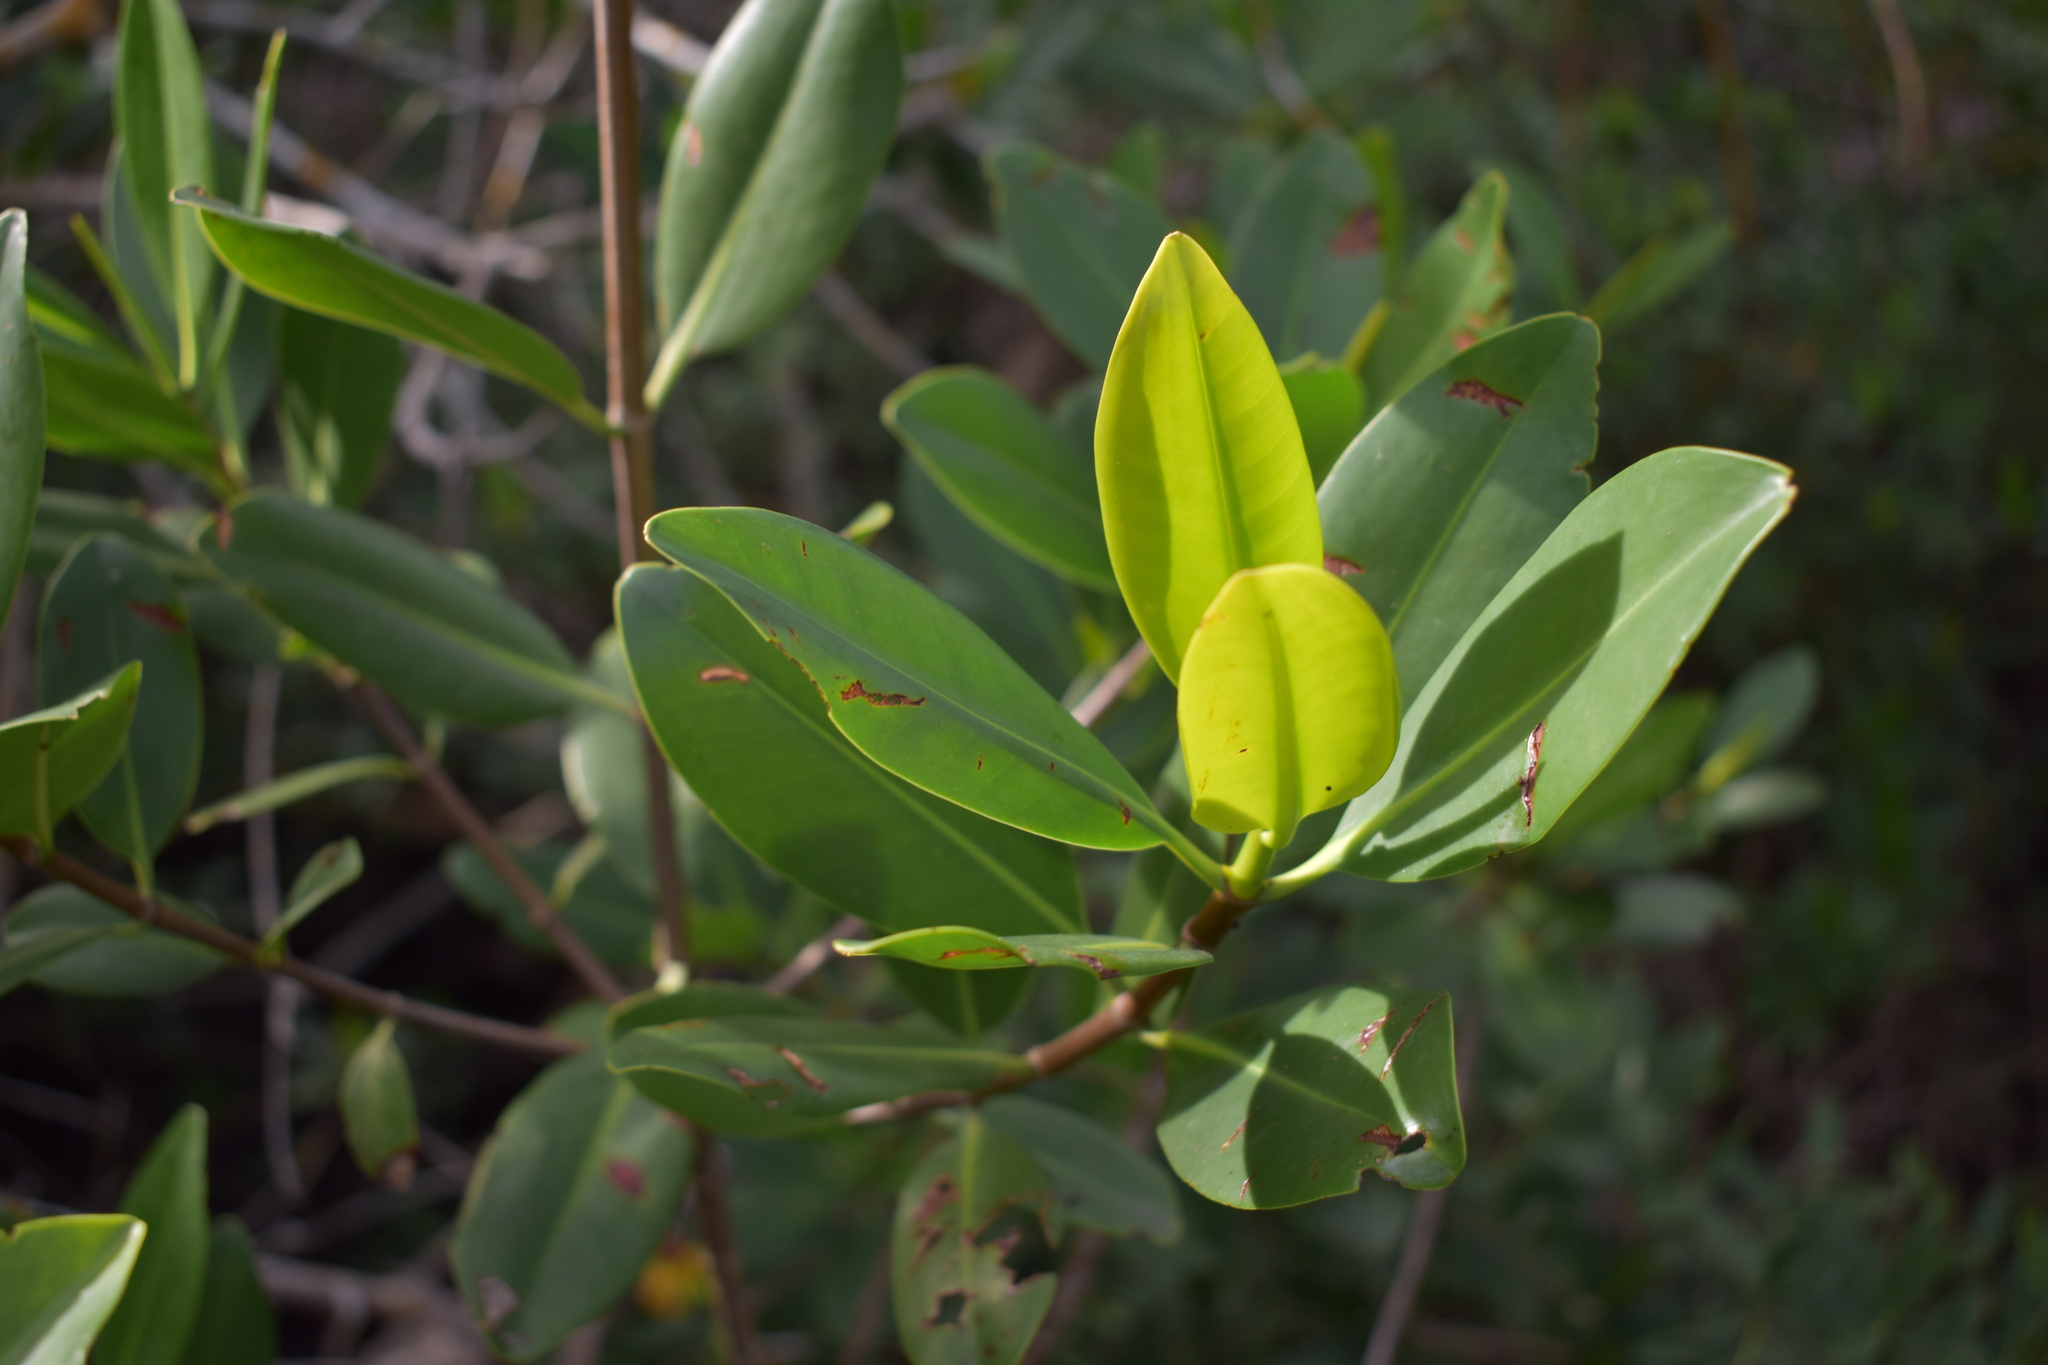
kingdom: Plantae
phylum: Tracheophyta
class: Magnoliopsida
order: Malpighiales
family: Rhizophoraceae
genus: Rhizophora
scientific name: Rhizophora mangle
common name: Red mangrove
